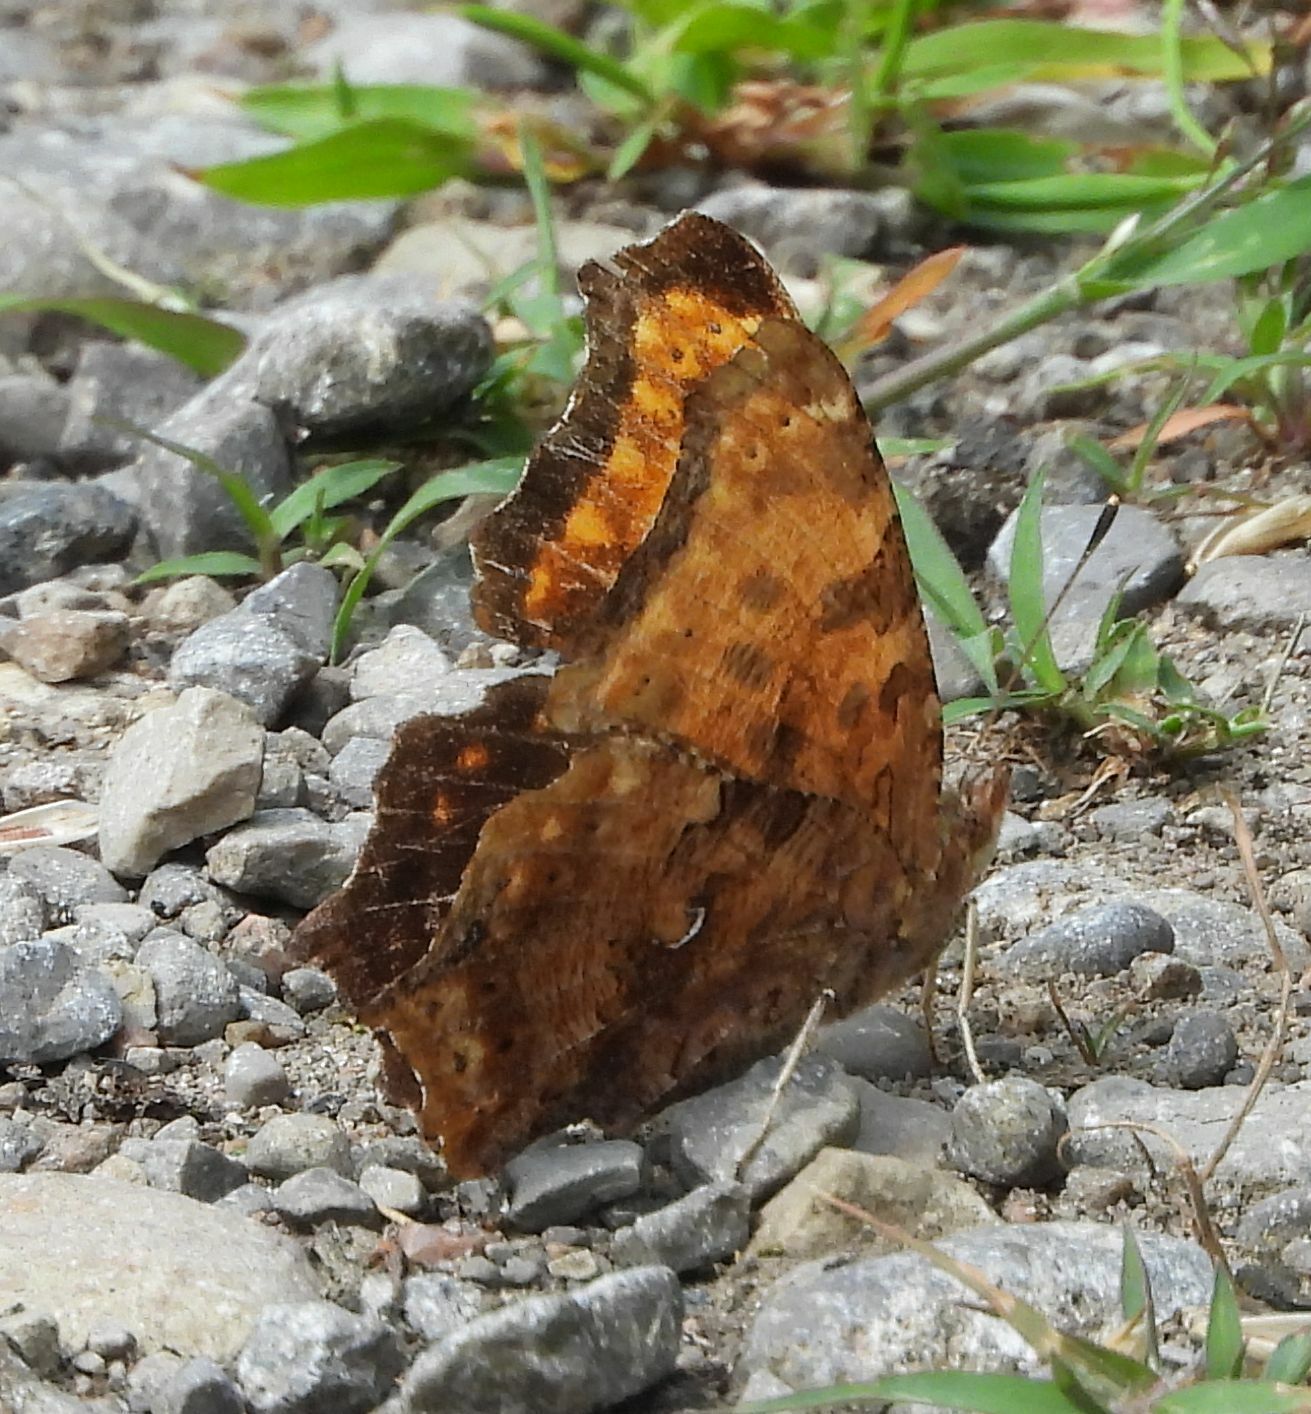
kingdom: Animalia
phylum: Arthropoda
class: Insecta
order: Lepidoptera
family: Nymphalidae
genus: Polygonia
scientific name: Polygonia comma
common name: Eastern comma
